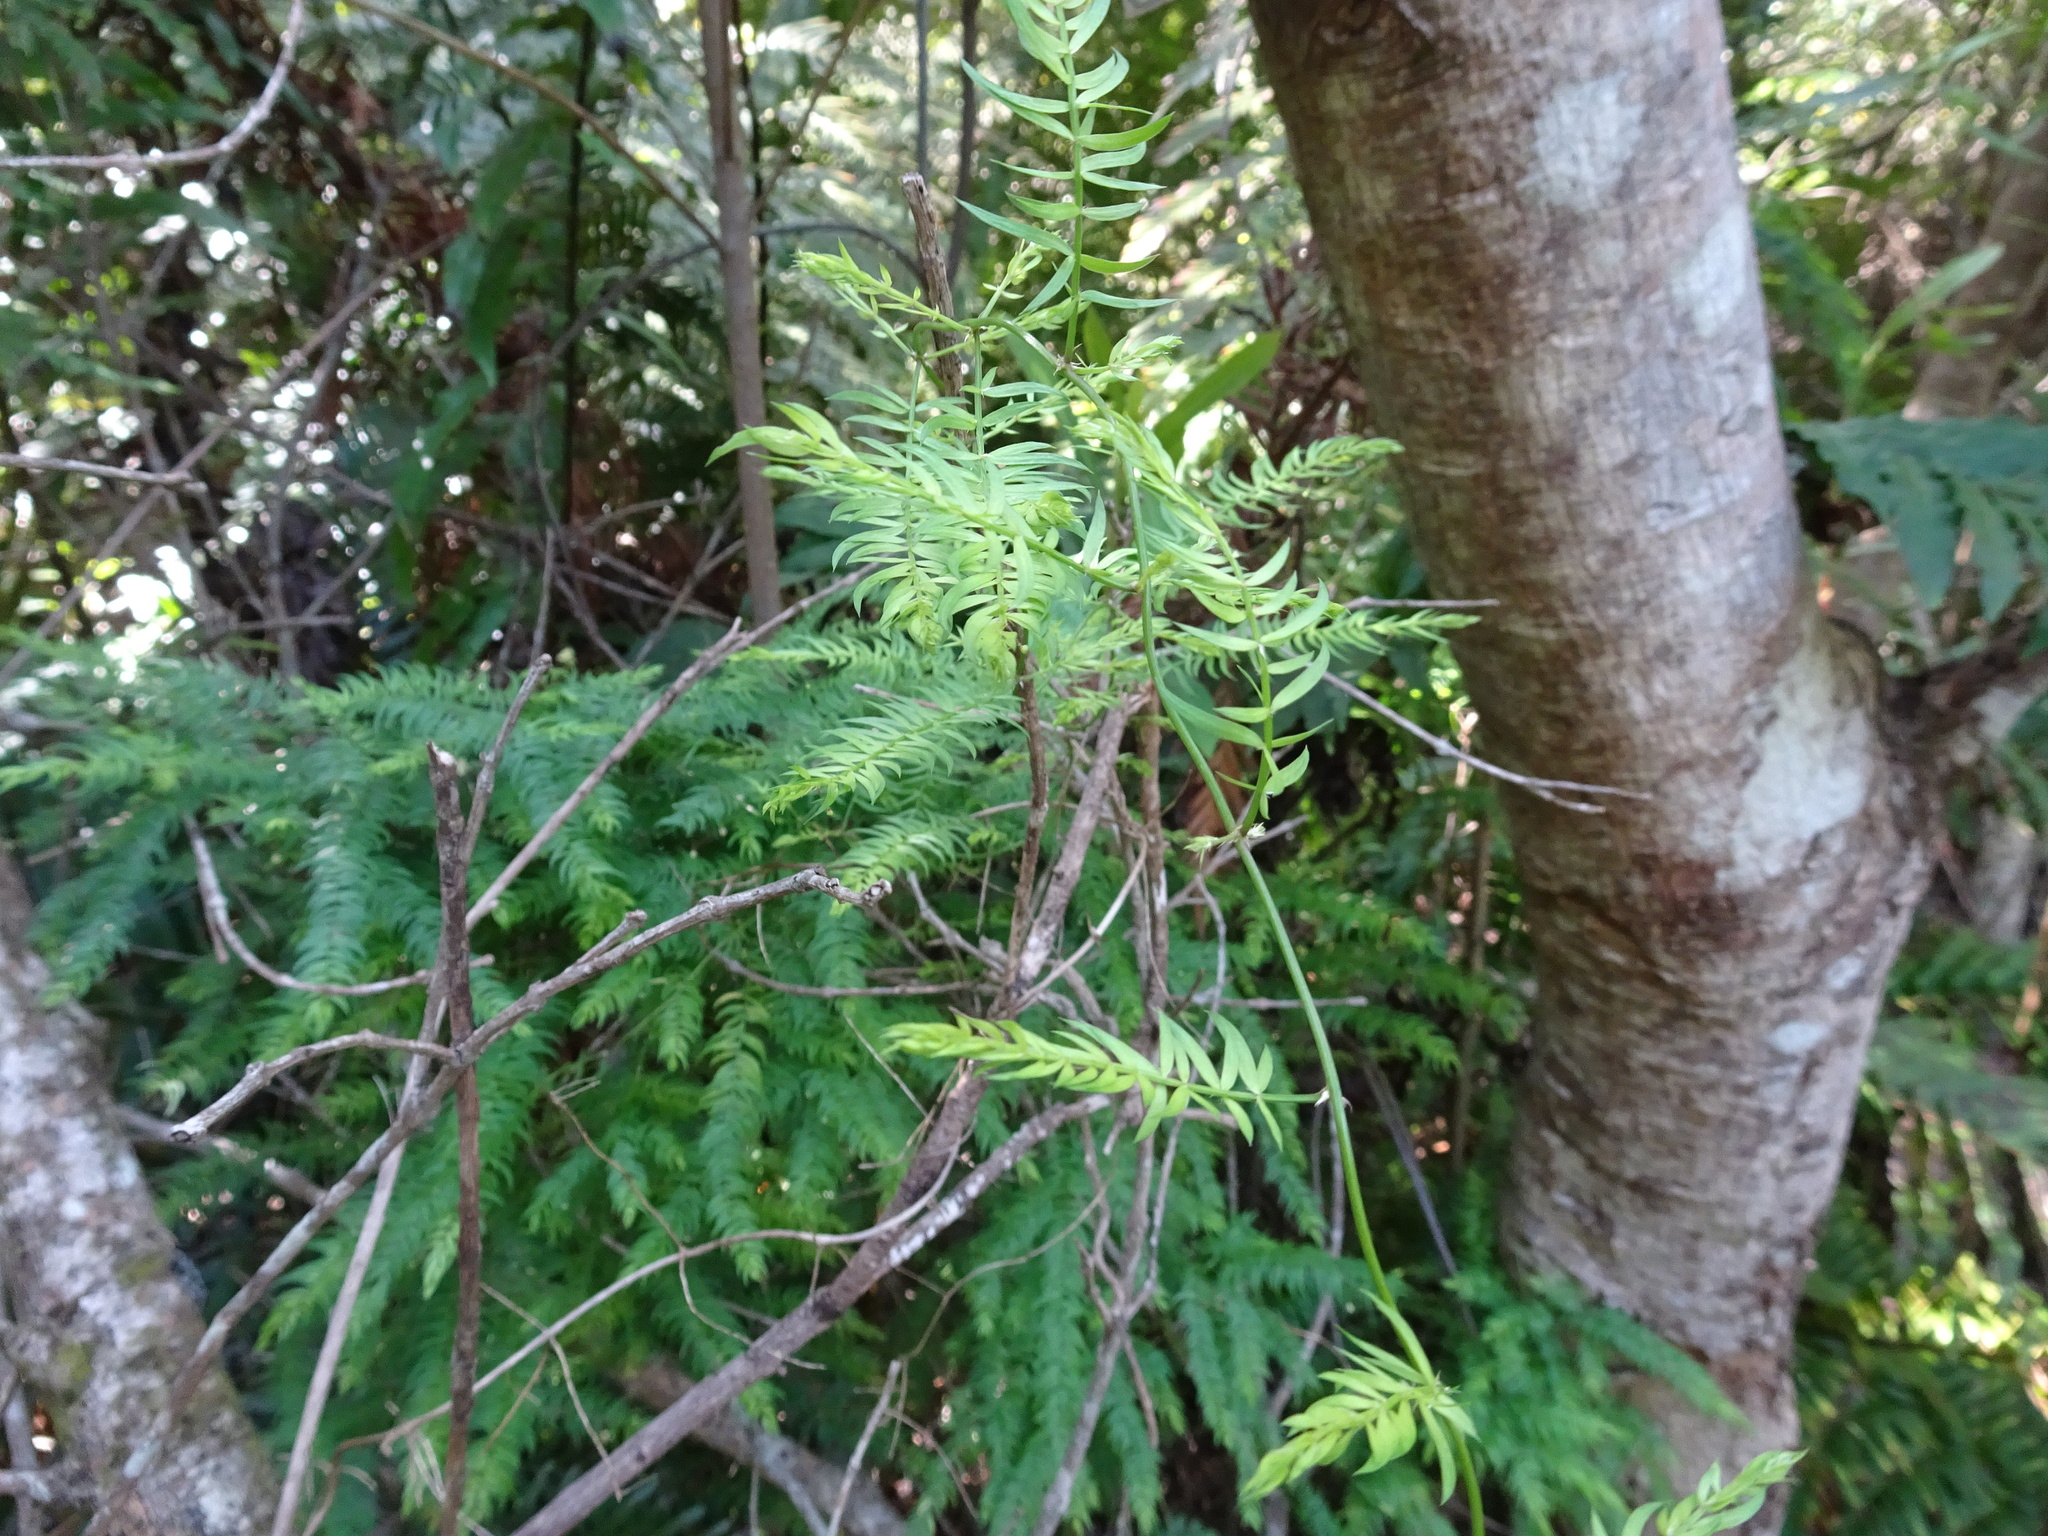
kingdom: Plantae
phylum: Tracheophyta
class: Liliopsida
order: Asparagales
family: Asparagaceae
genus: Asparagus
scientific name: Asparagus scandens
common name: Asparagus-fern
